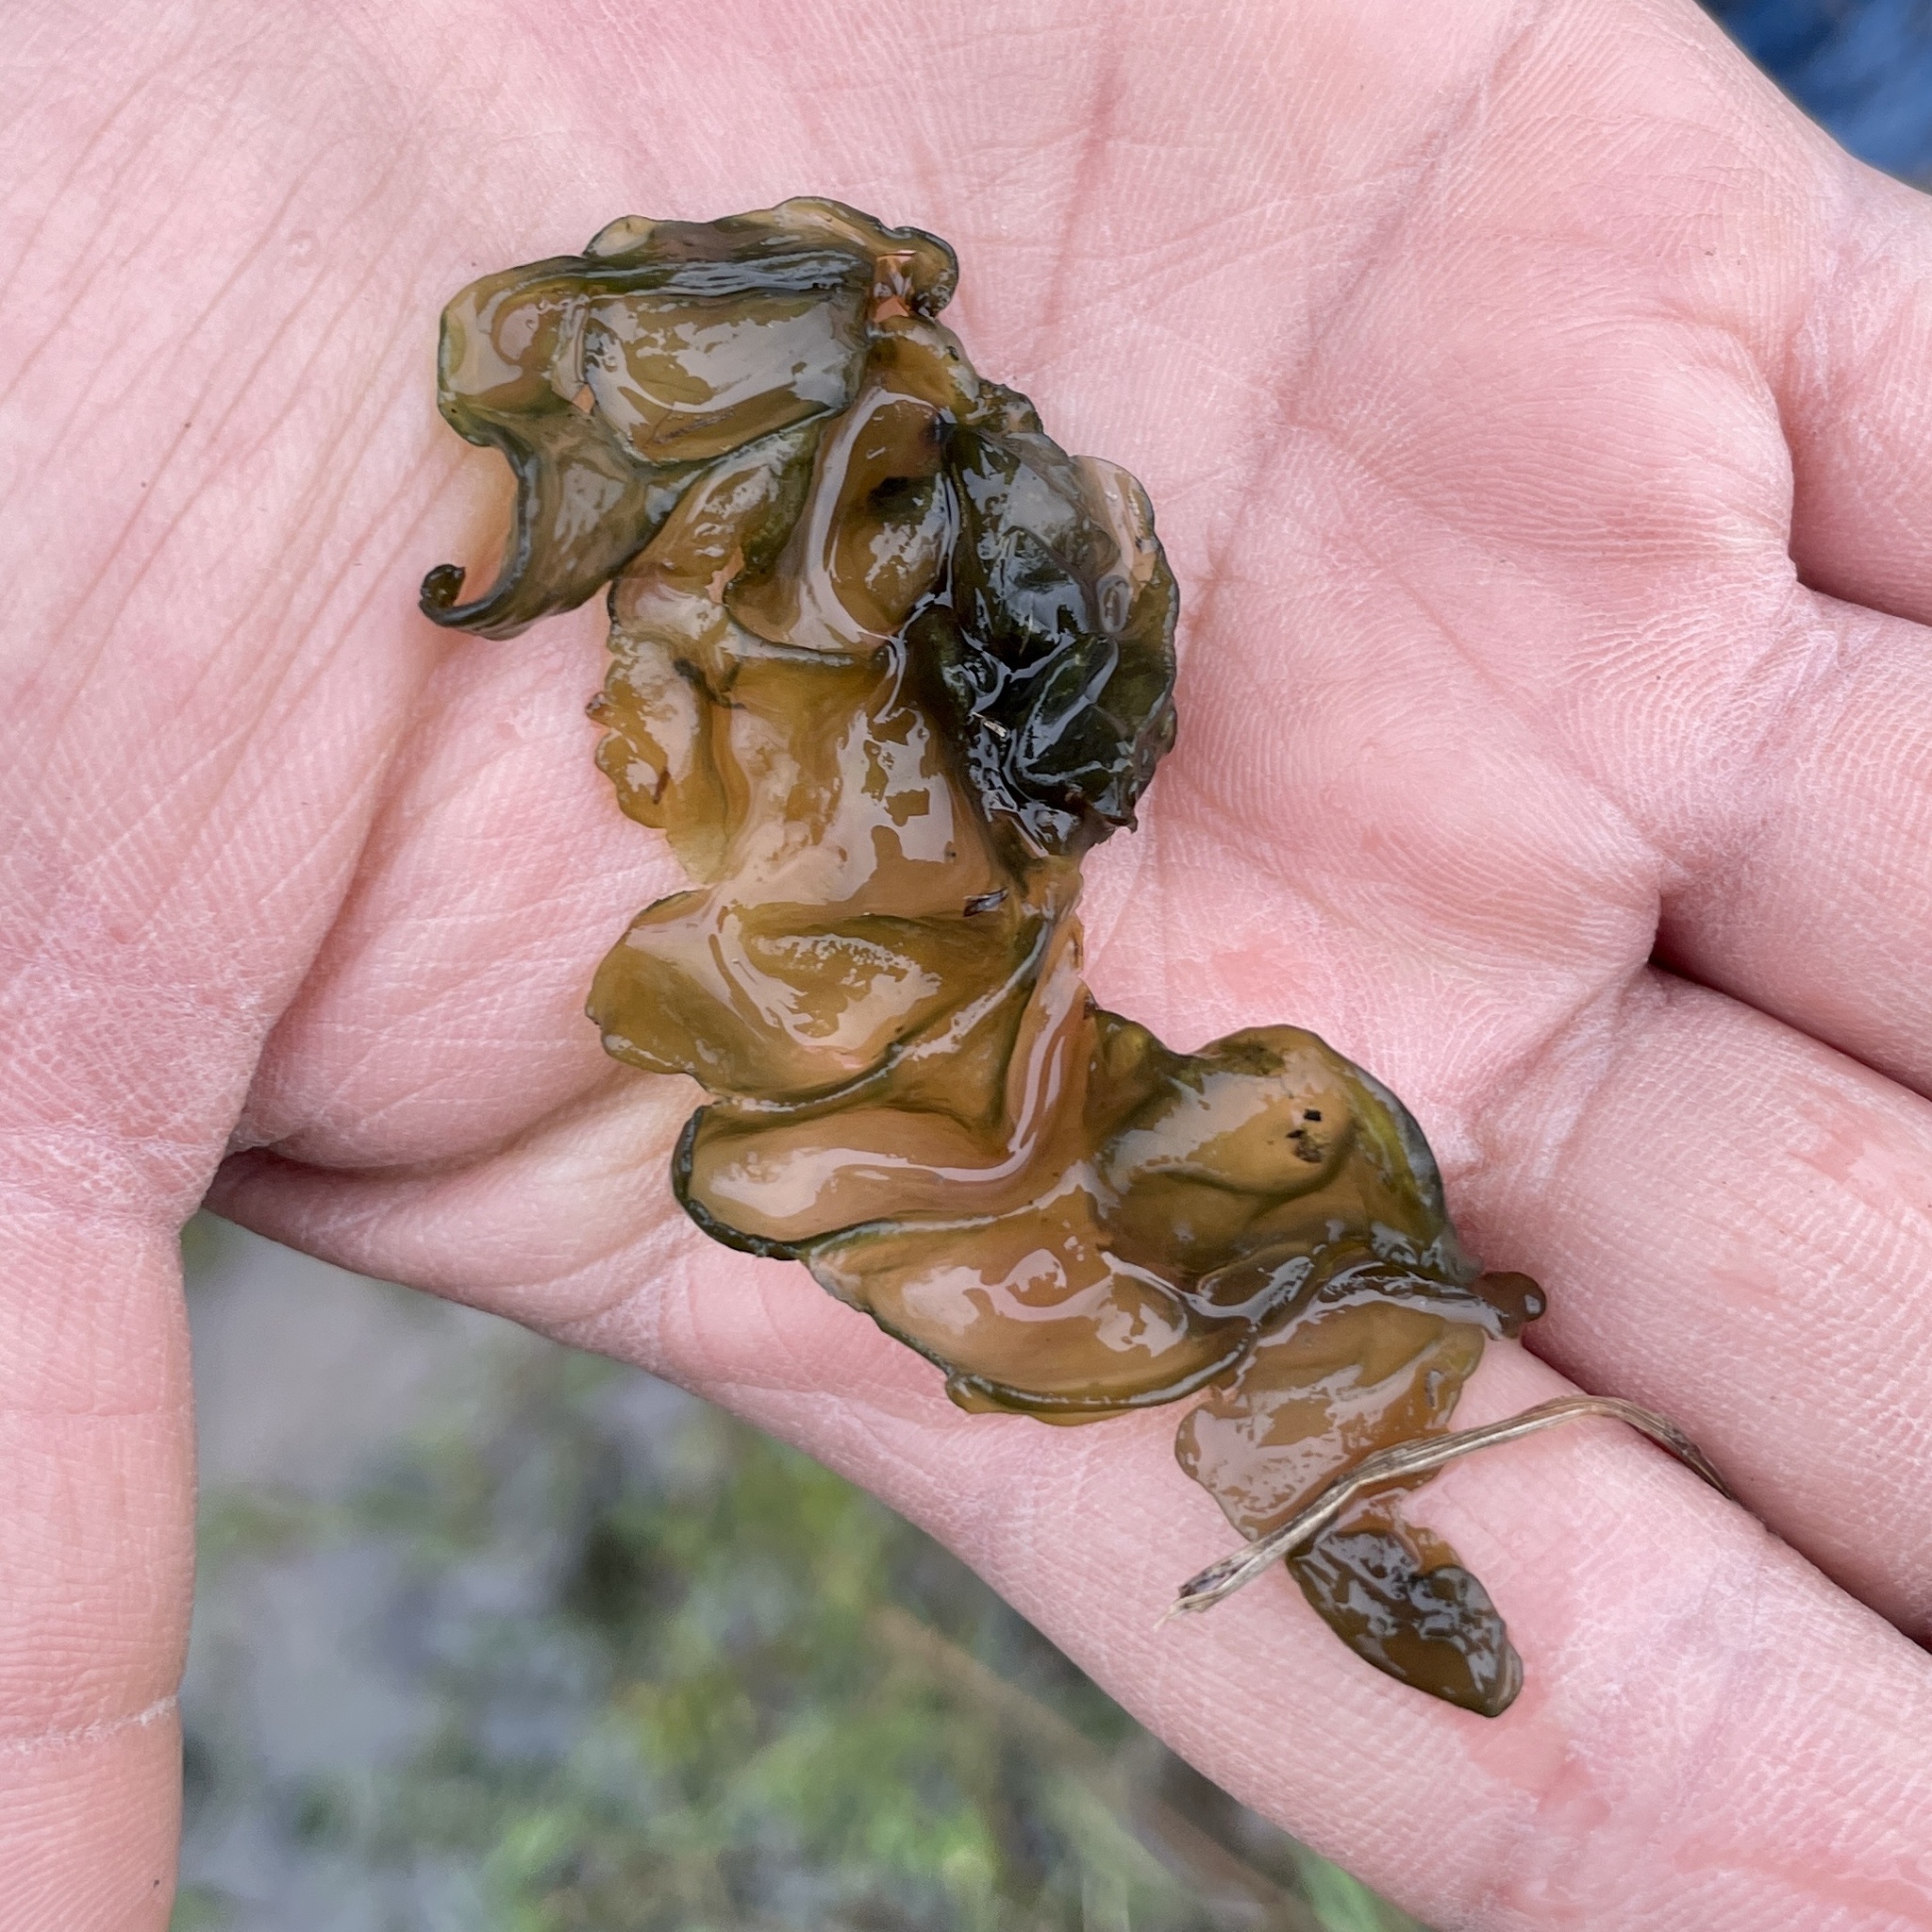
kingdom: Bacteria
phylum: Cyanobacteria
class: Cyanobacteriia
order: Cyanobacteriales
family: Nostocaceae
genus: Nostoc
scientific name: Nostoc commune
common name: Star jelly
